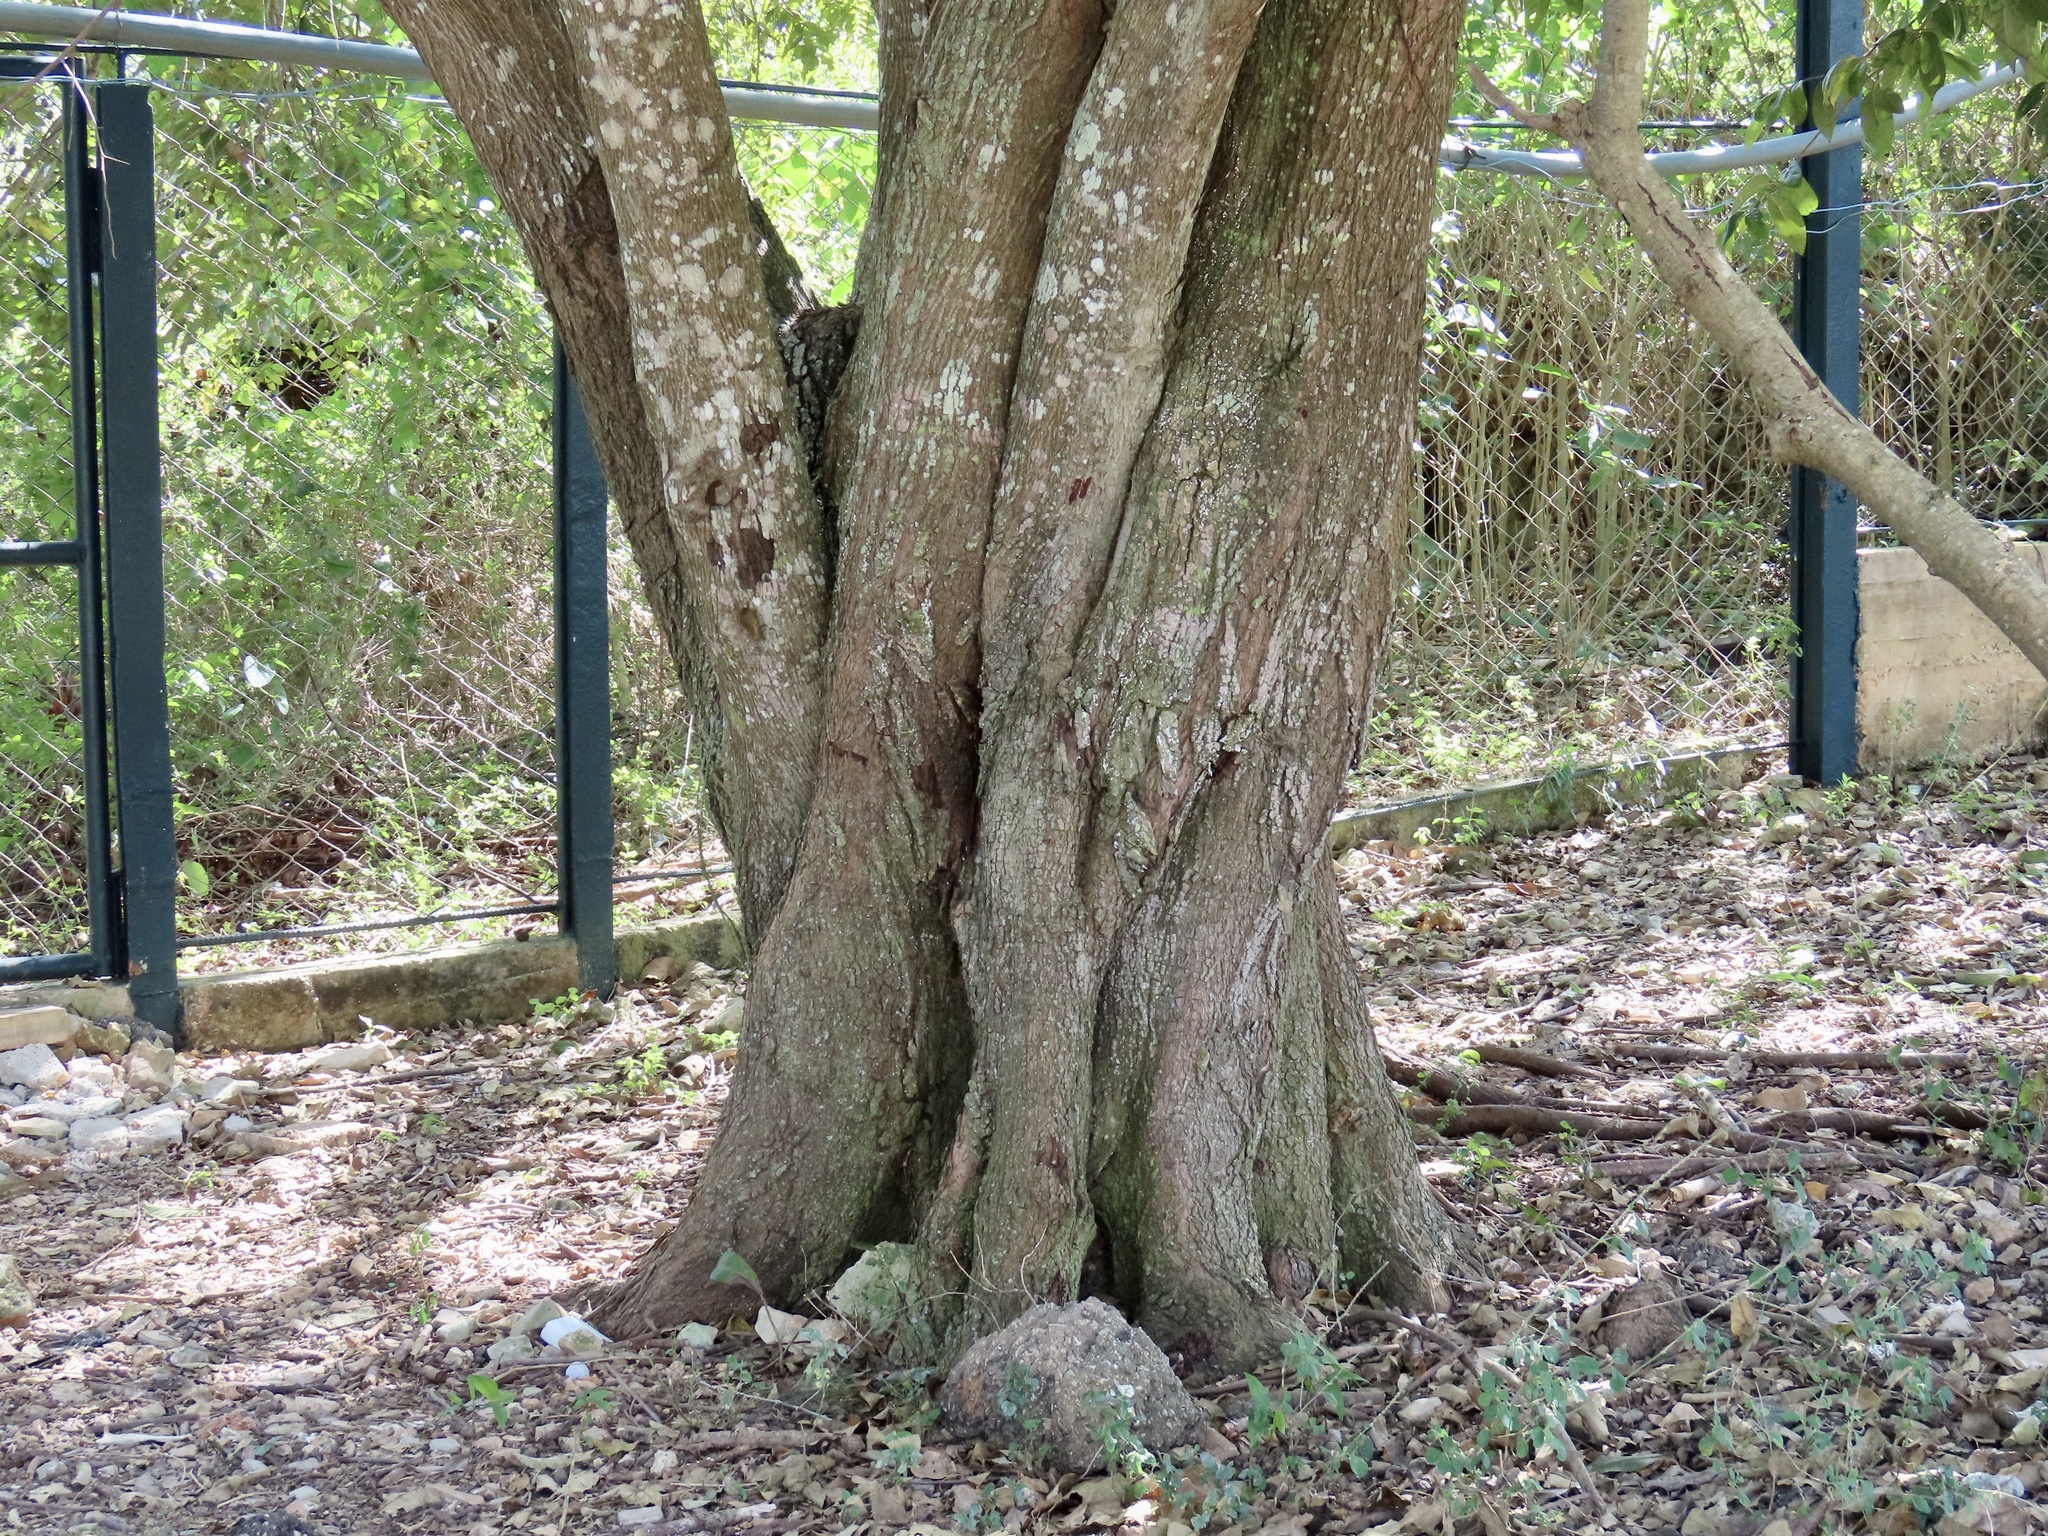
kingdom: Plantae
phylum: Tracheophyta
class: Magnoliopsida
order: Malvales
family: Malvaceae
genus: Guazuma
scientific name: Guazuma ulmifolia
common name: Bastard-cedar
